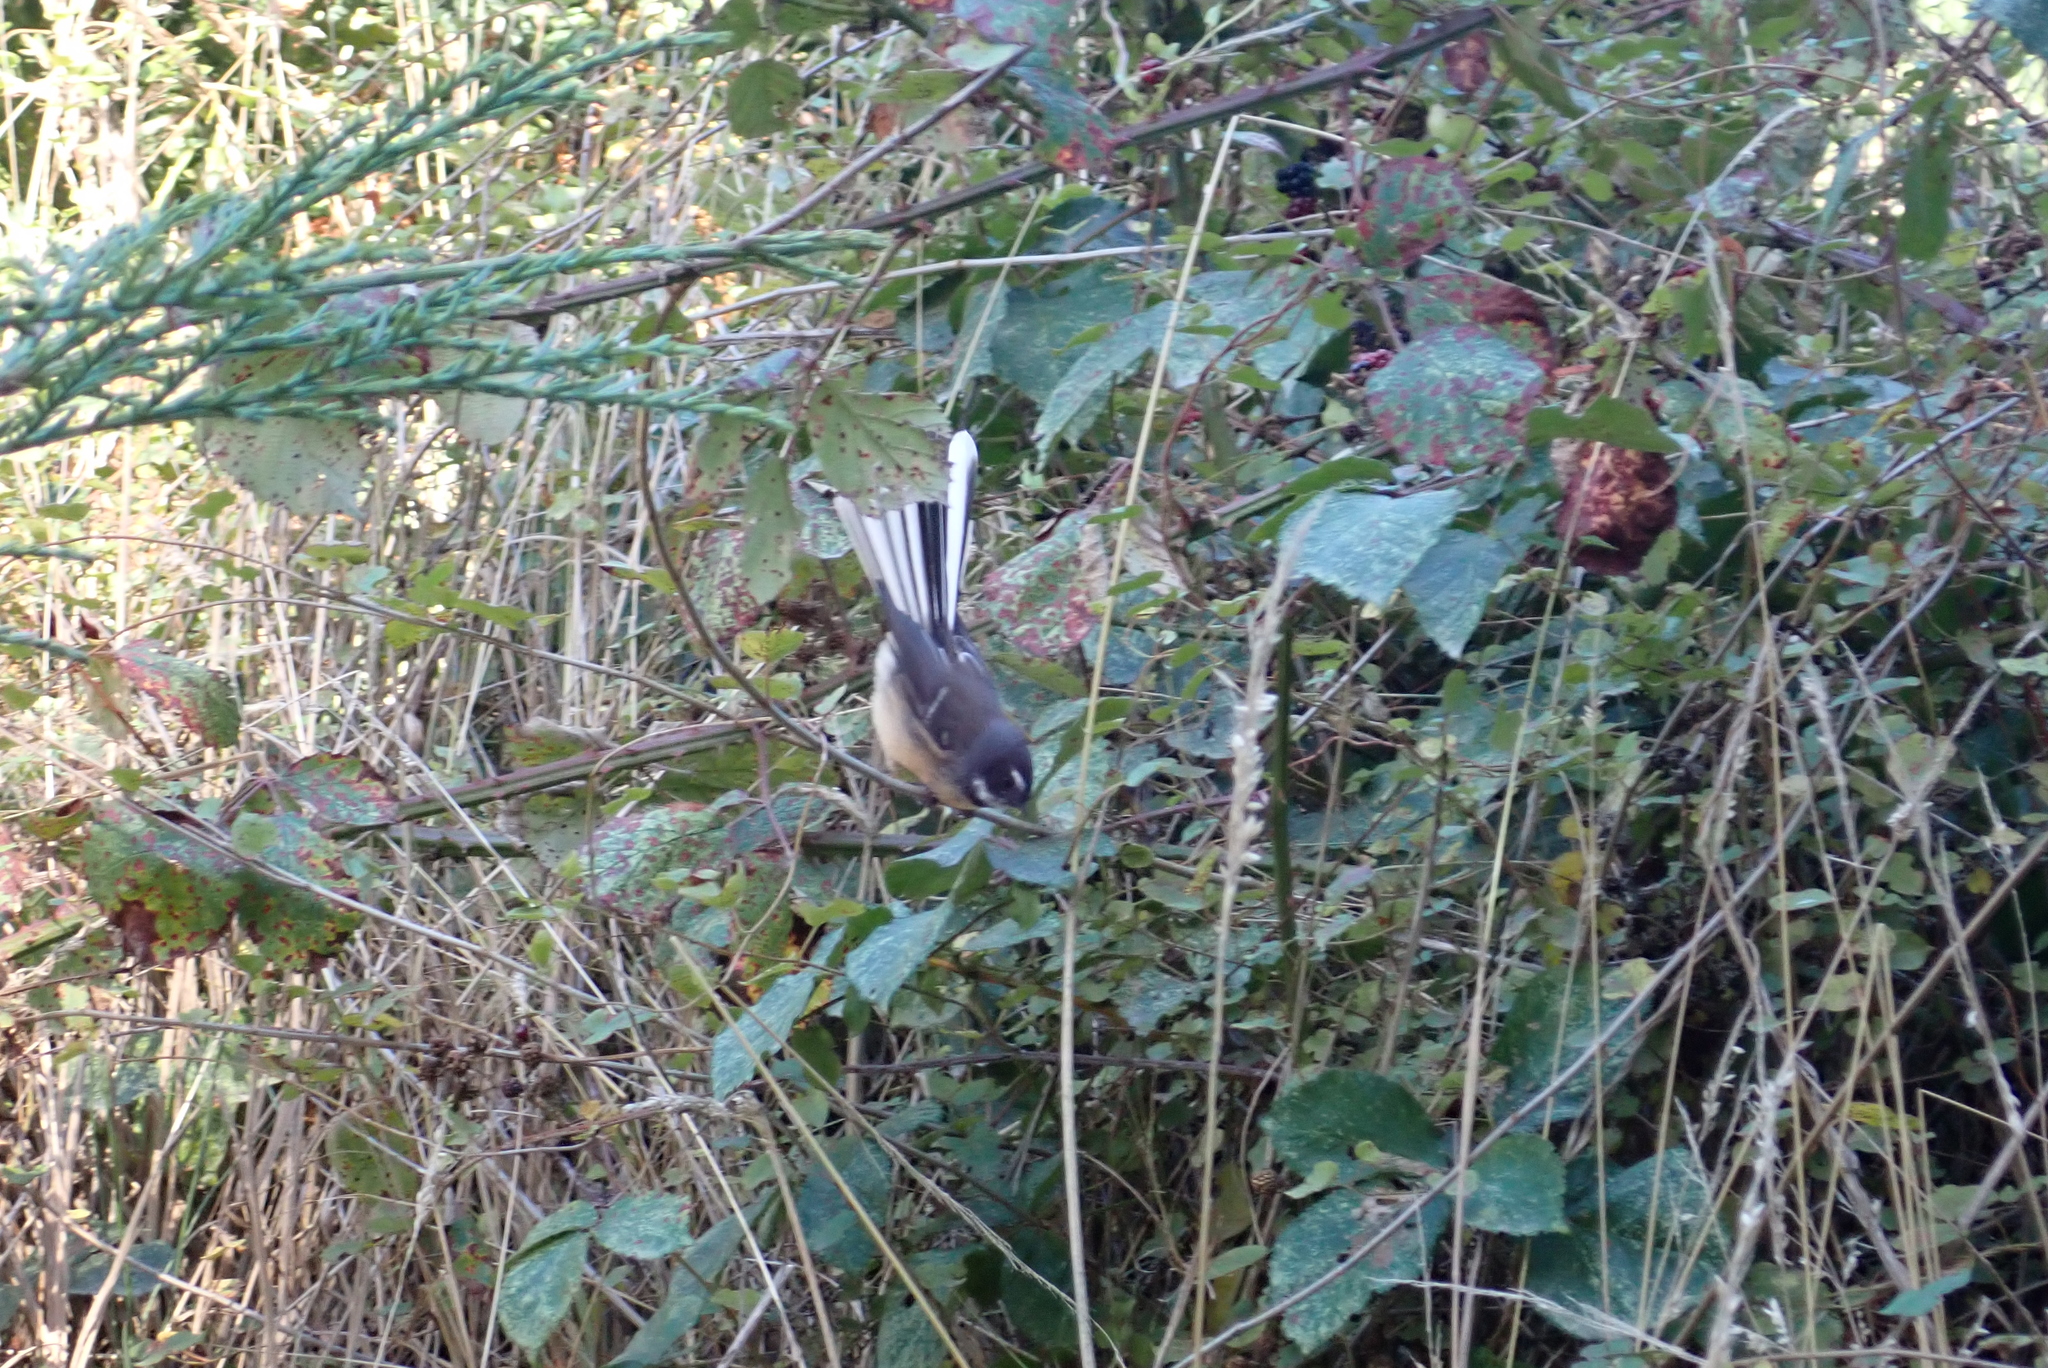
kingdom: Animalia
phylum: Chordata
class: Aves
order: Passeriformes
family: Rhipiduridae
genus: Rhipidura
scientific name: Rhipidura fuliginosa
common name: New zealand fantail
